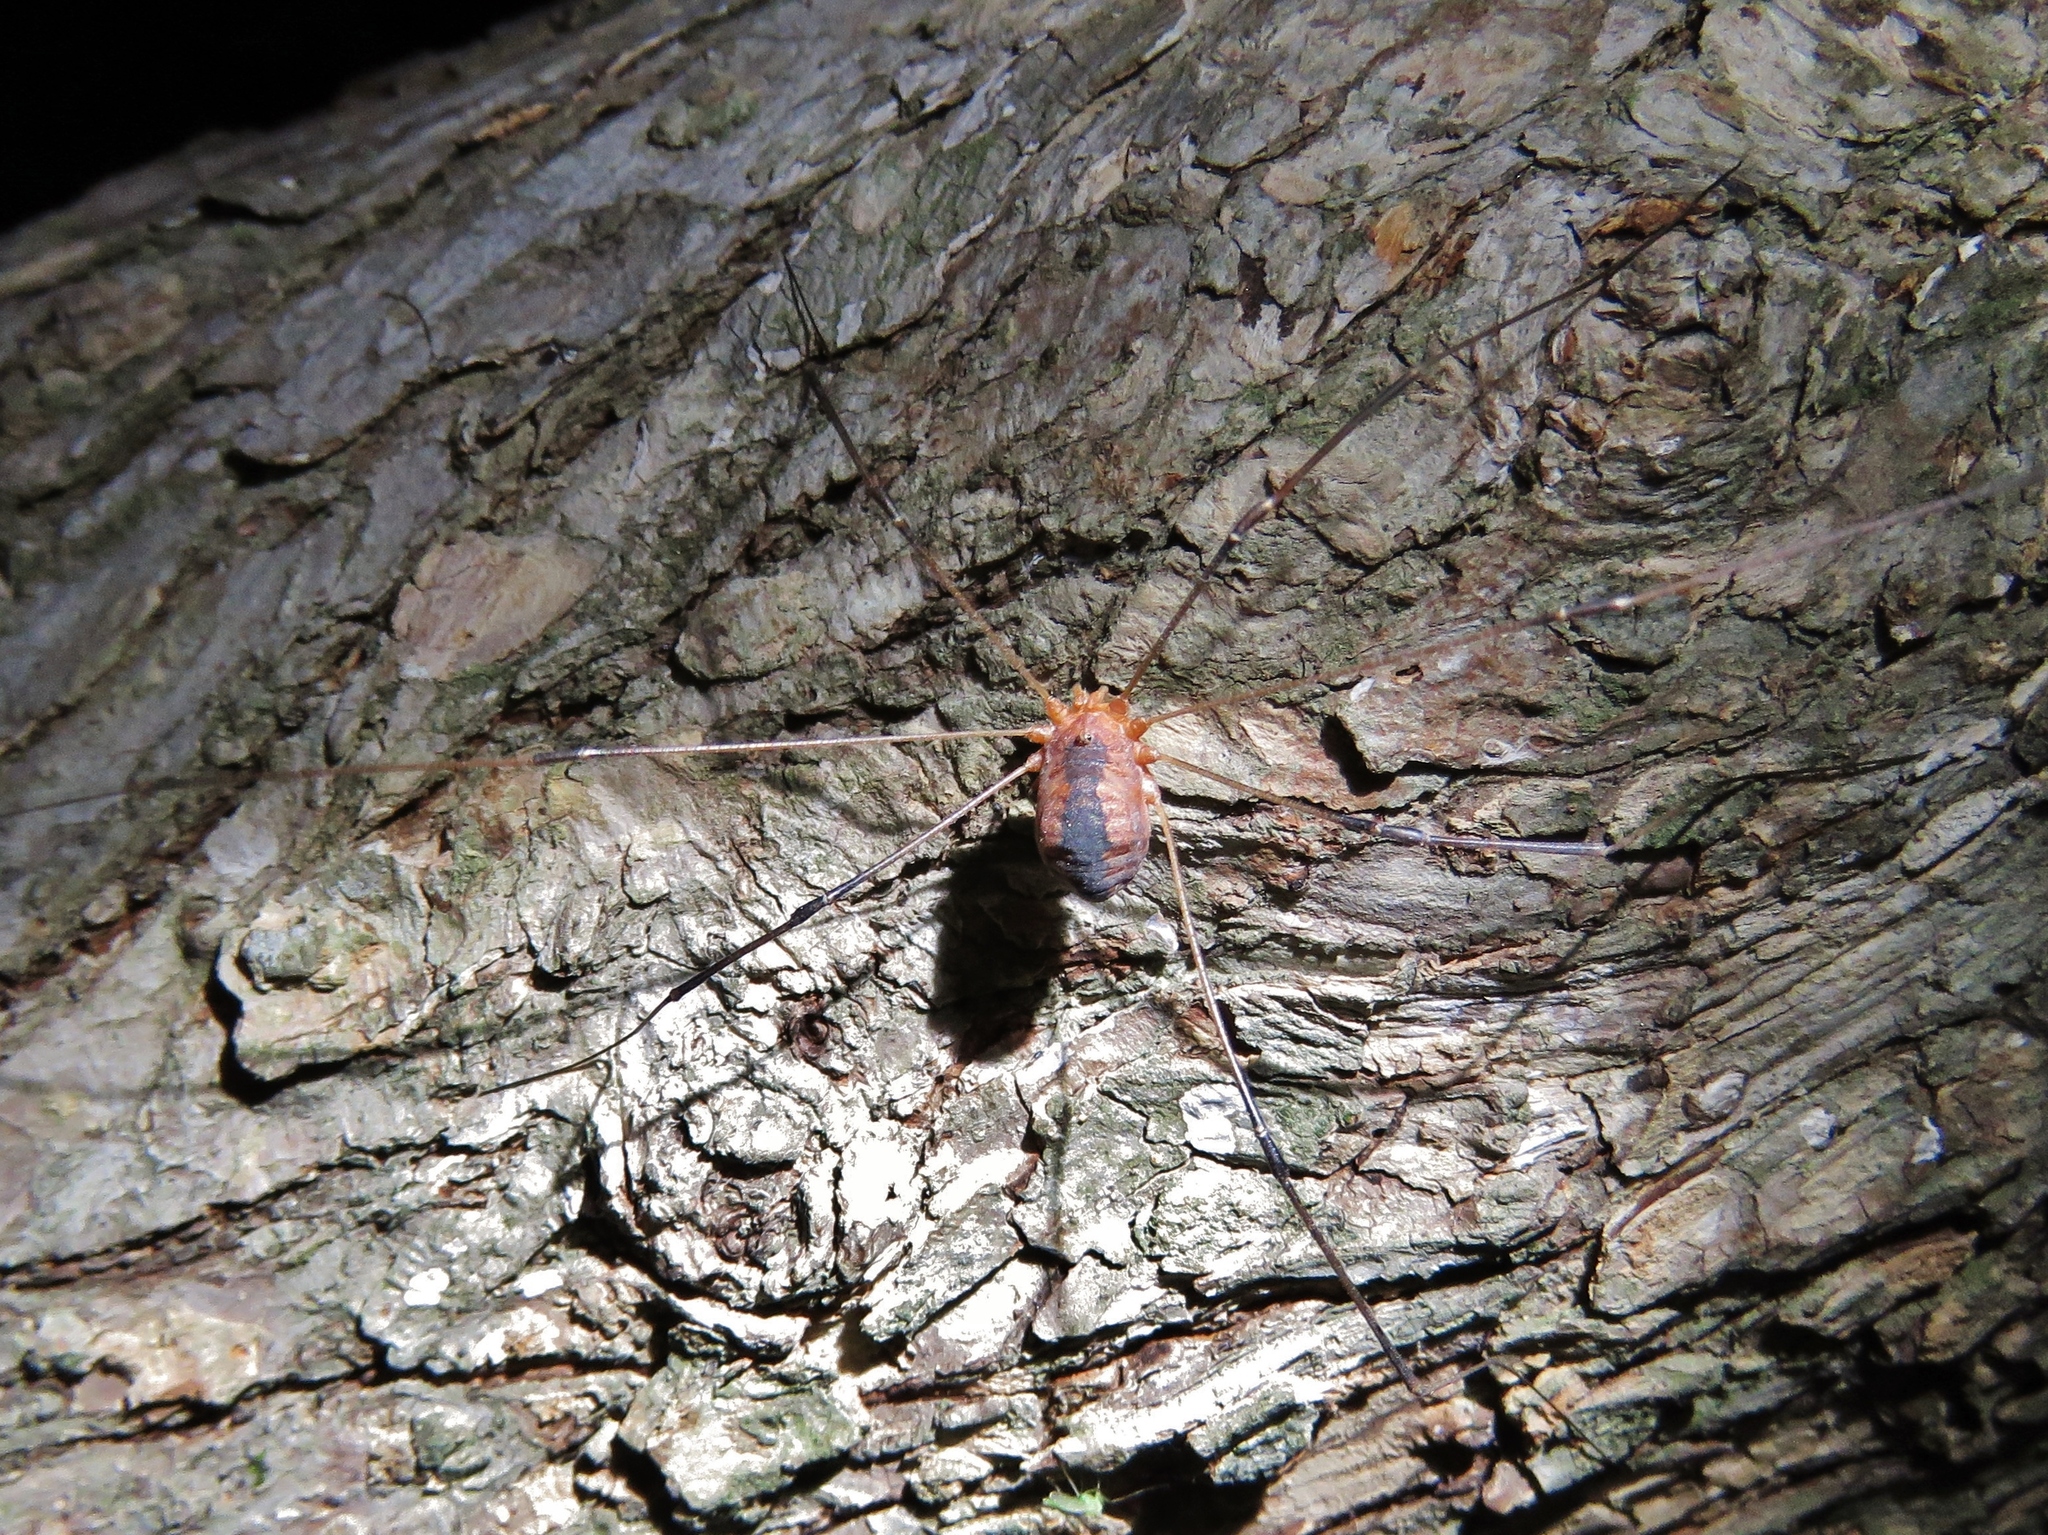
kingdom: Animalia
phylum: Arthropoda
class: Arachnida
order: Opiliones
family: Sclerosomatidae
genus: Leiobunum
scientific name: Leiobunum vittatum
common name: Eastern harvestman
